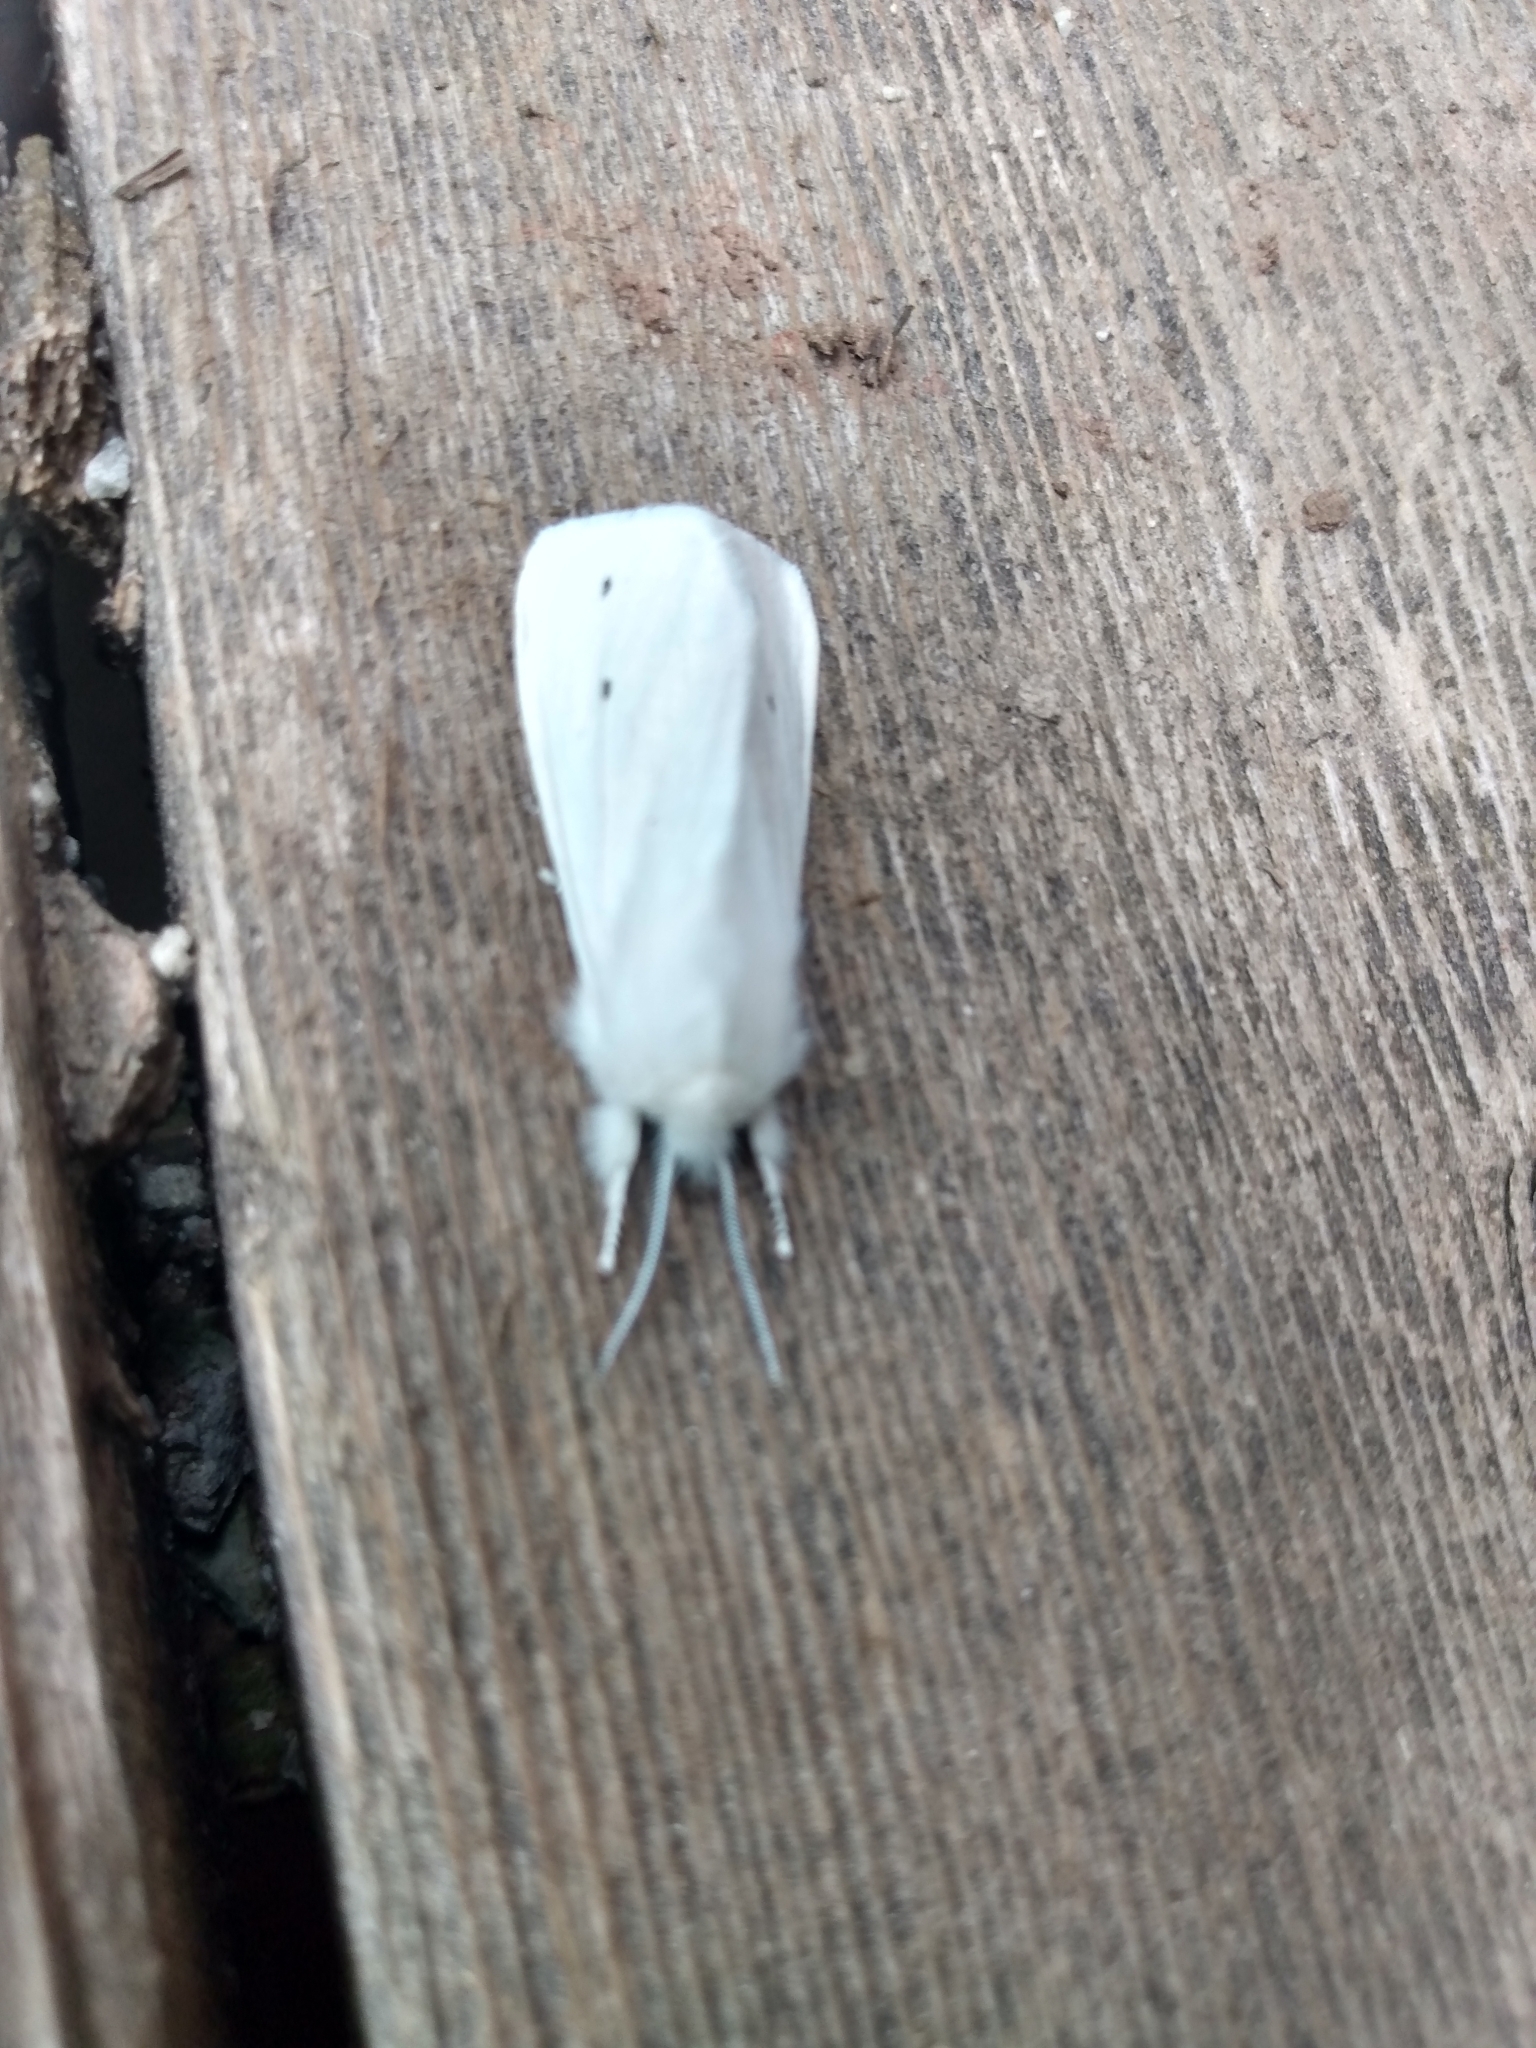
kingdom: Animalia
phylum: Arthropoda
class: Insecta
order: Lepidoptera
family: Erebidae
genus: Spilosoma
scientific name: Spilosoma virginica
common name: Virginia tiger moth
